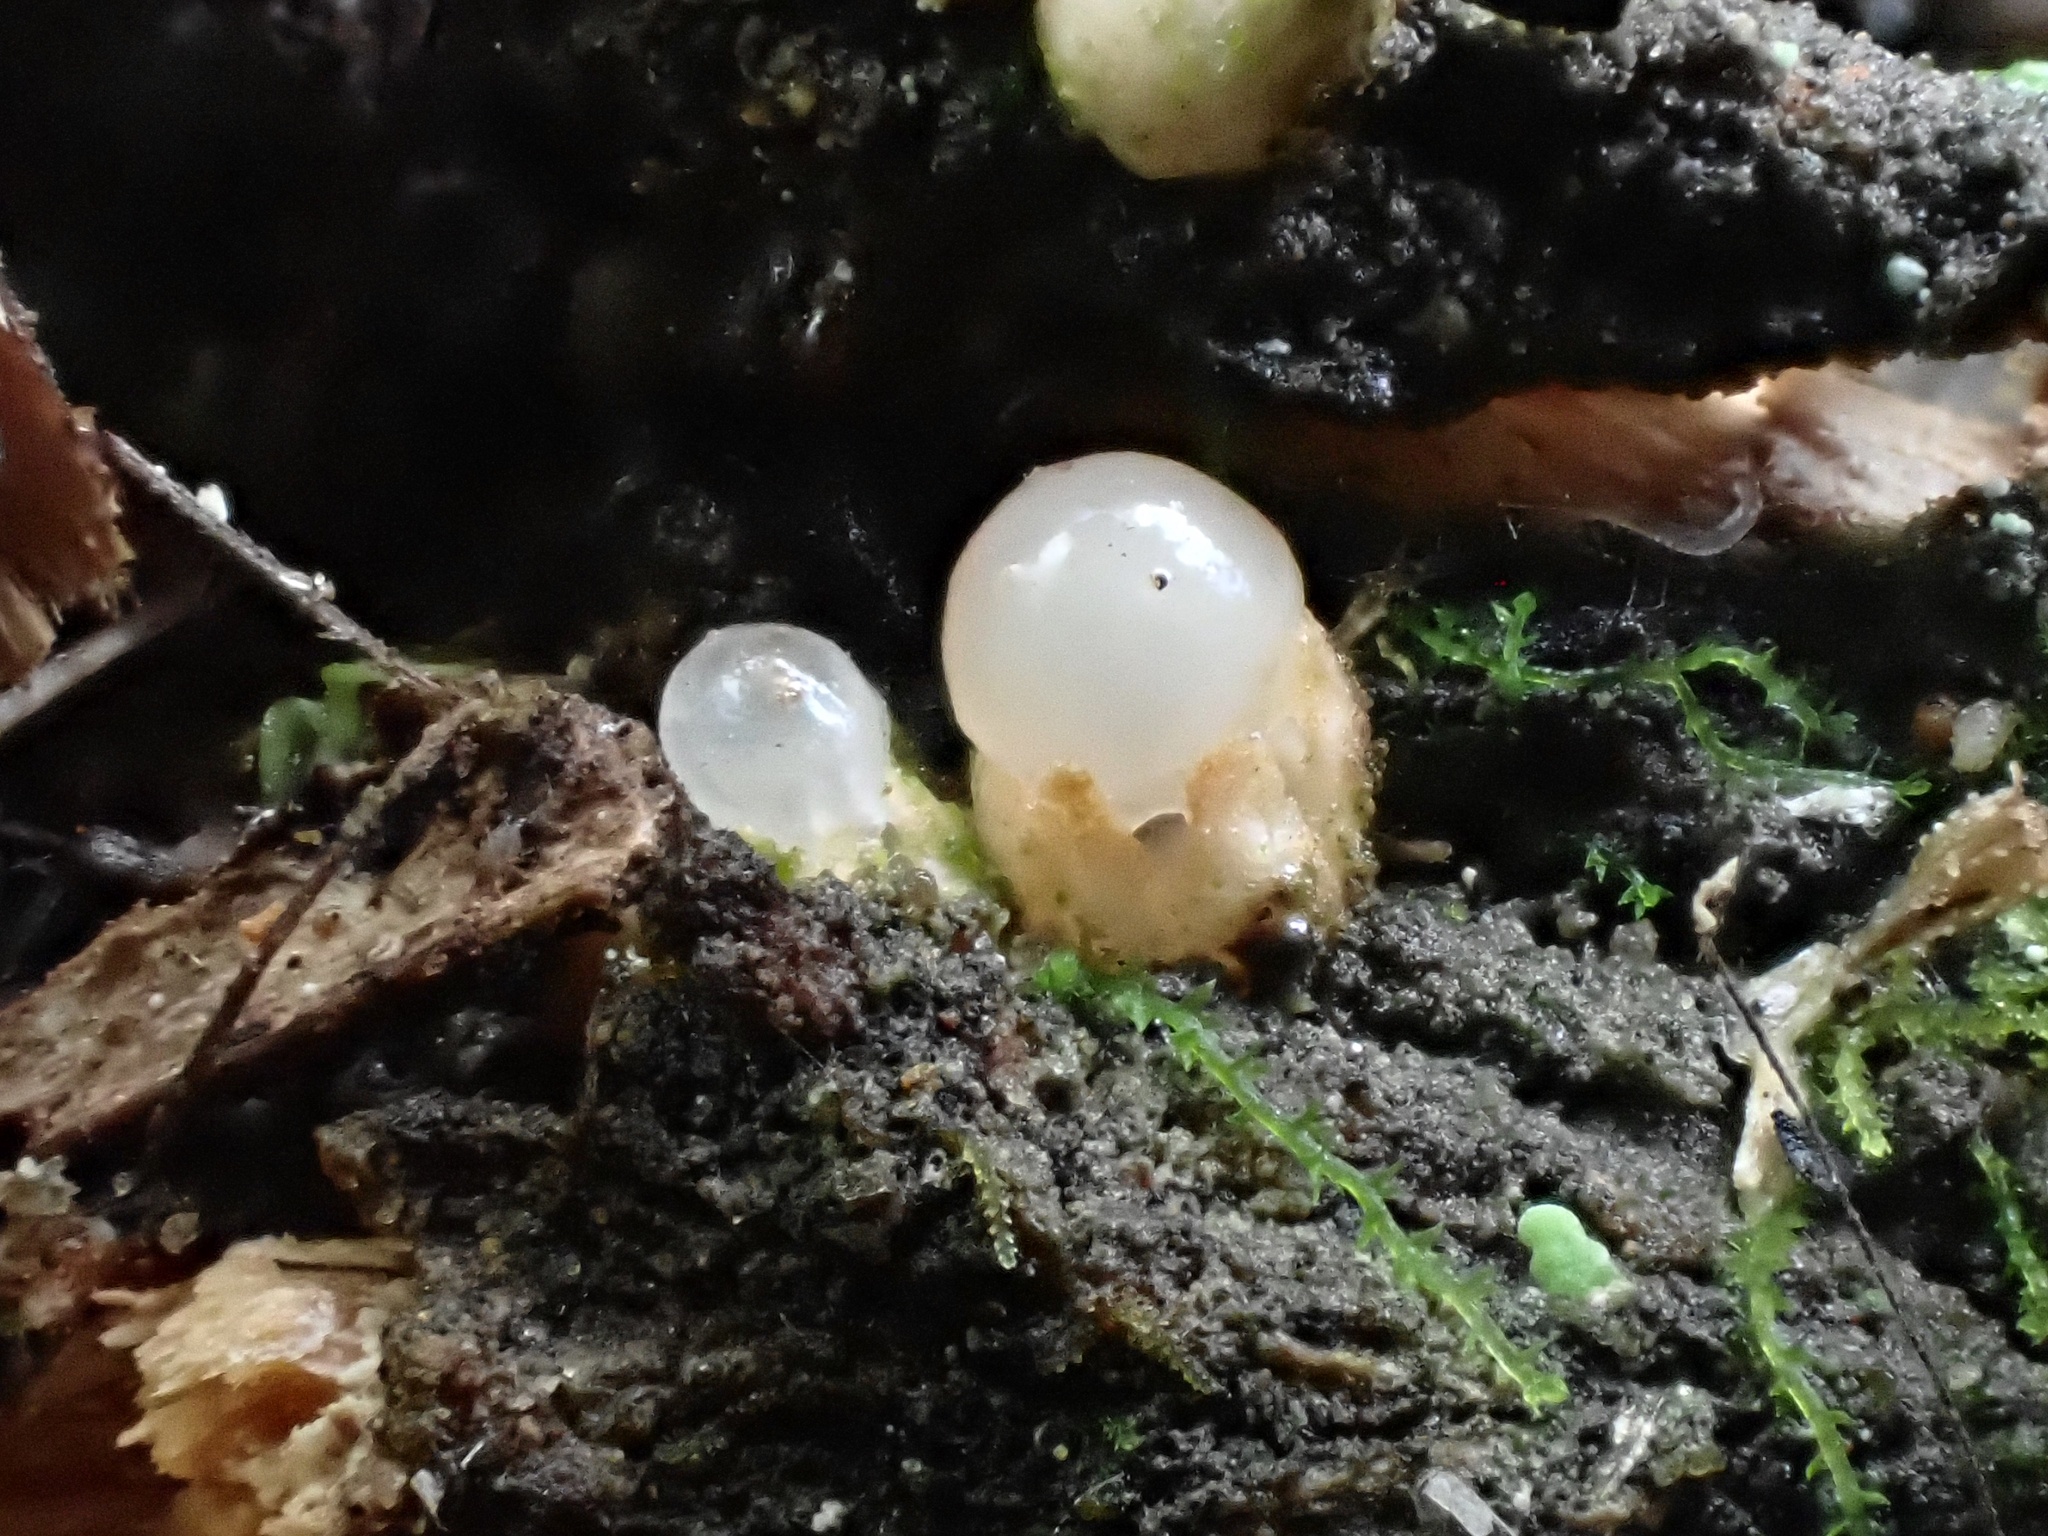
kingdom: Fungi
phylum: Basidiomycota
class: Agaricomycetes
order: Geastrales
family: Geastraceae
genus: Sphaerobolus
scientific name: Sphaerobolus stellatus
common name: Cannon fungus
